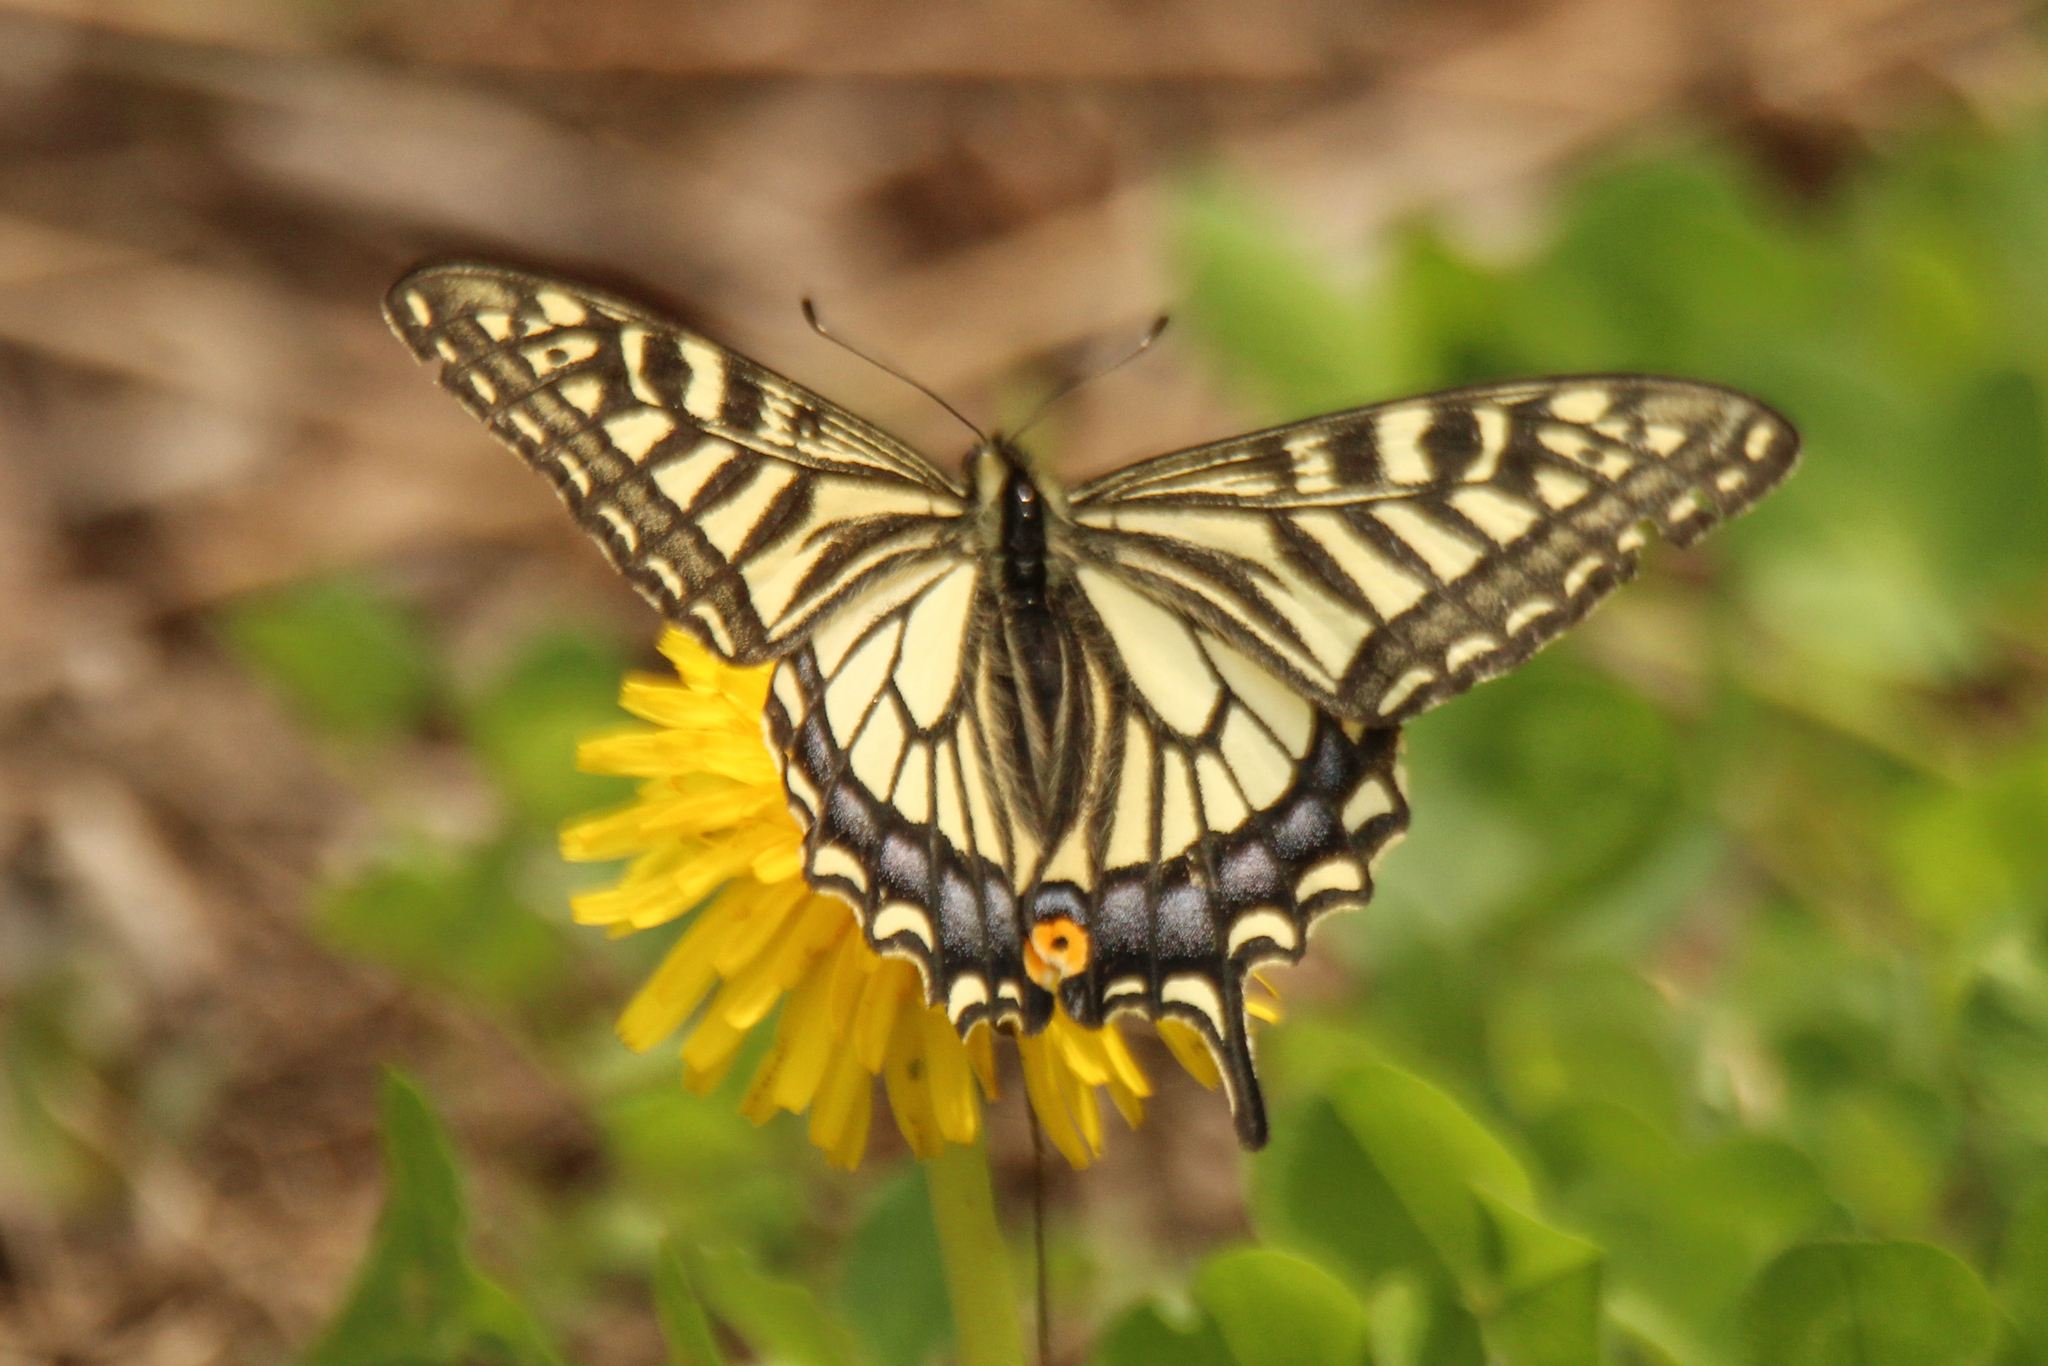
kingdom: Animalia
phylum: Arthropoda
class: Insecta
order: Lepidoptera
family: Papilionidae
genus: Papilio
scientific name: Papilio xuthus
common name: Asian swallowtail
